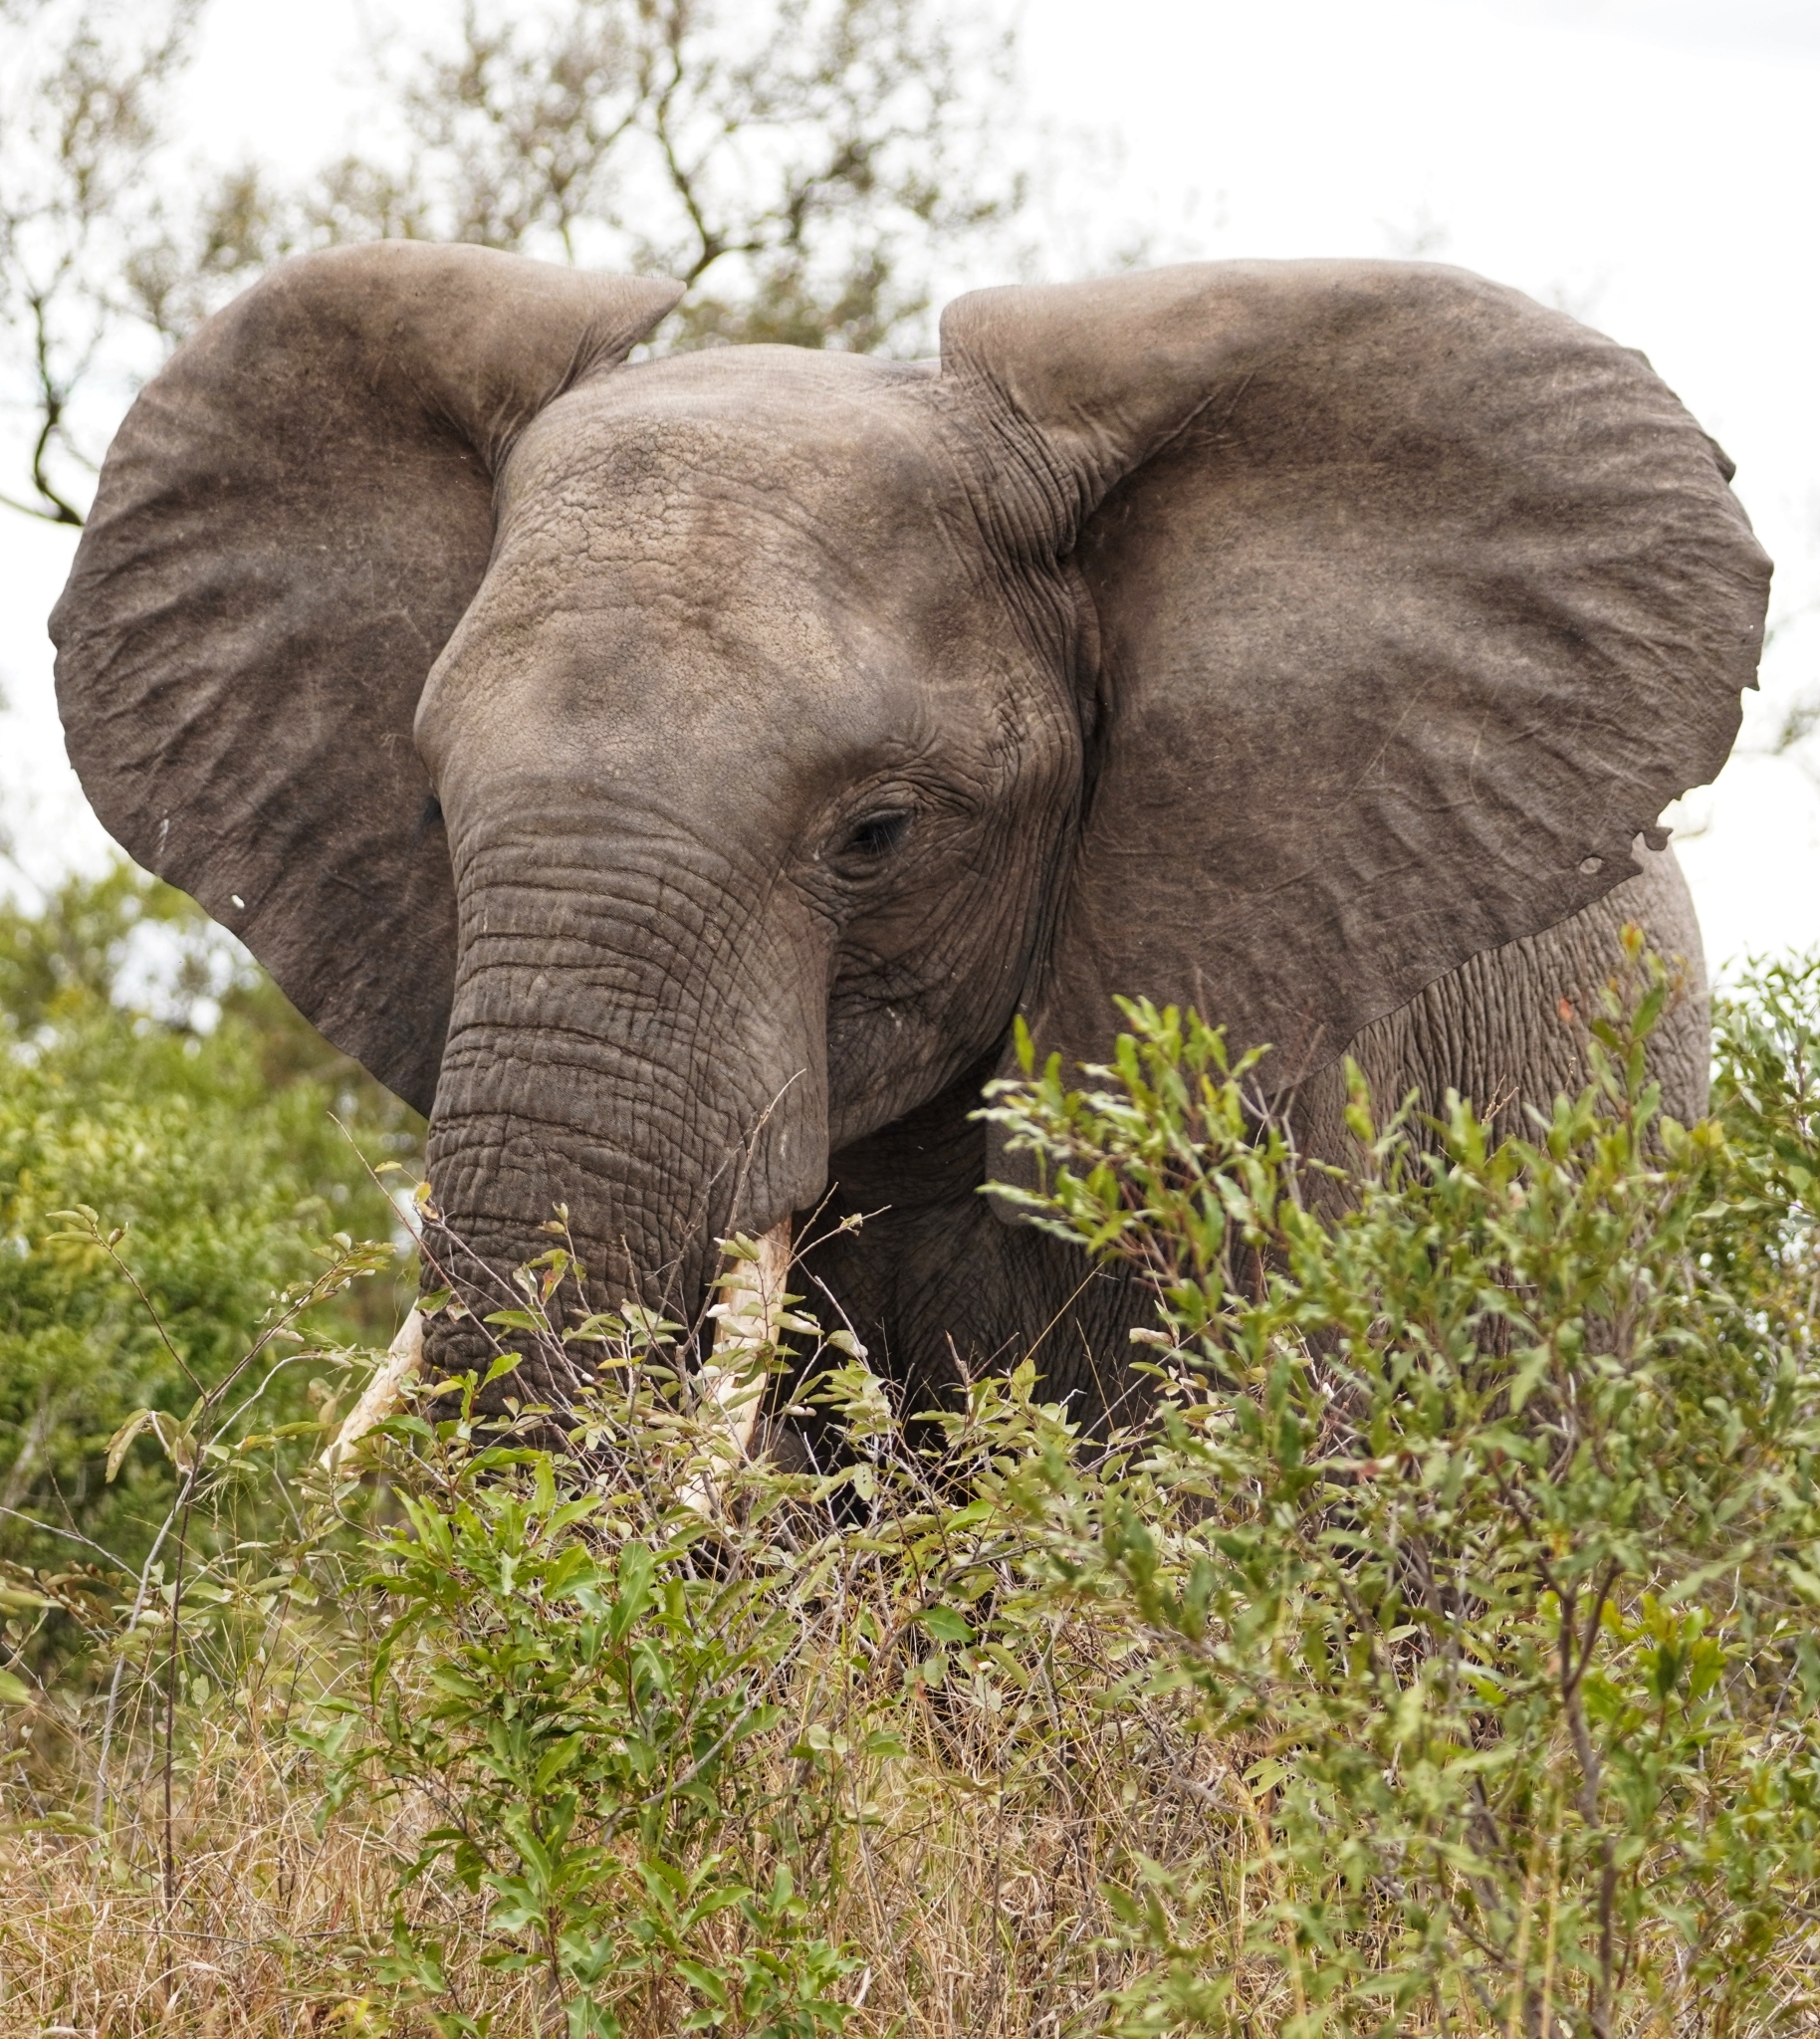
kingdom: Animalia
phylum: Chordata
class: Mammalia
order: Proboscidea
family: Elephantidae
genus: Loxodonta
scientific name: Loxodonta africana
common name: African elephant
